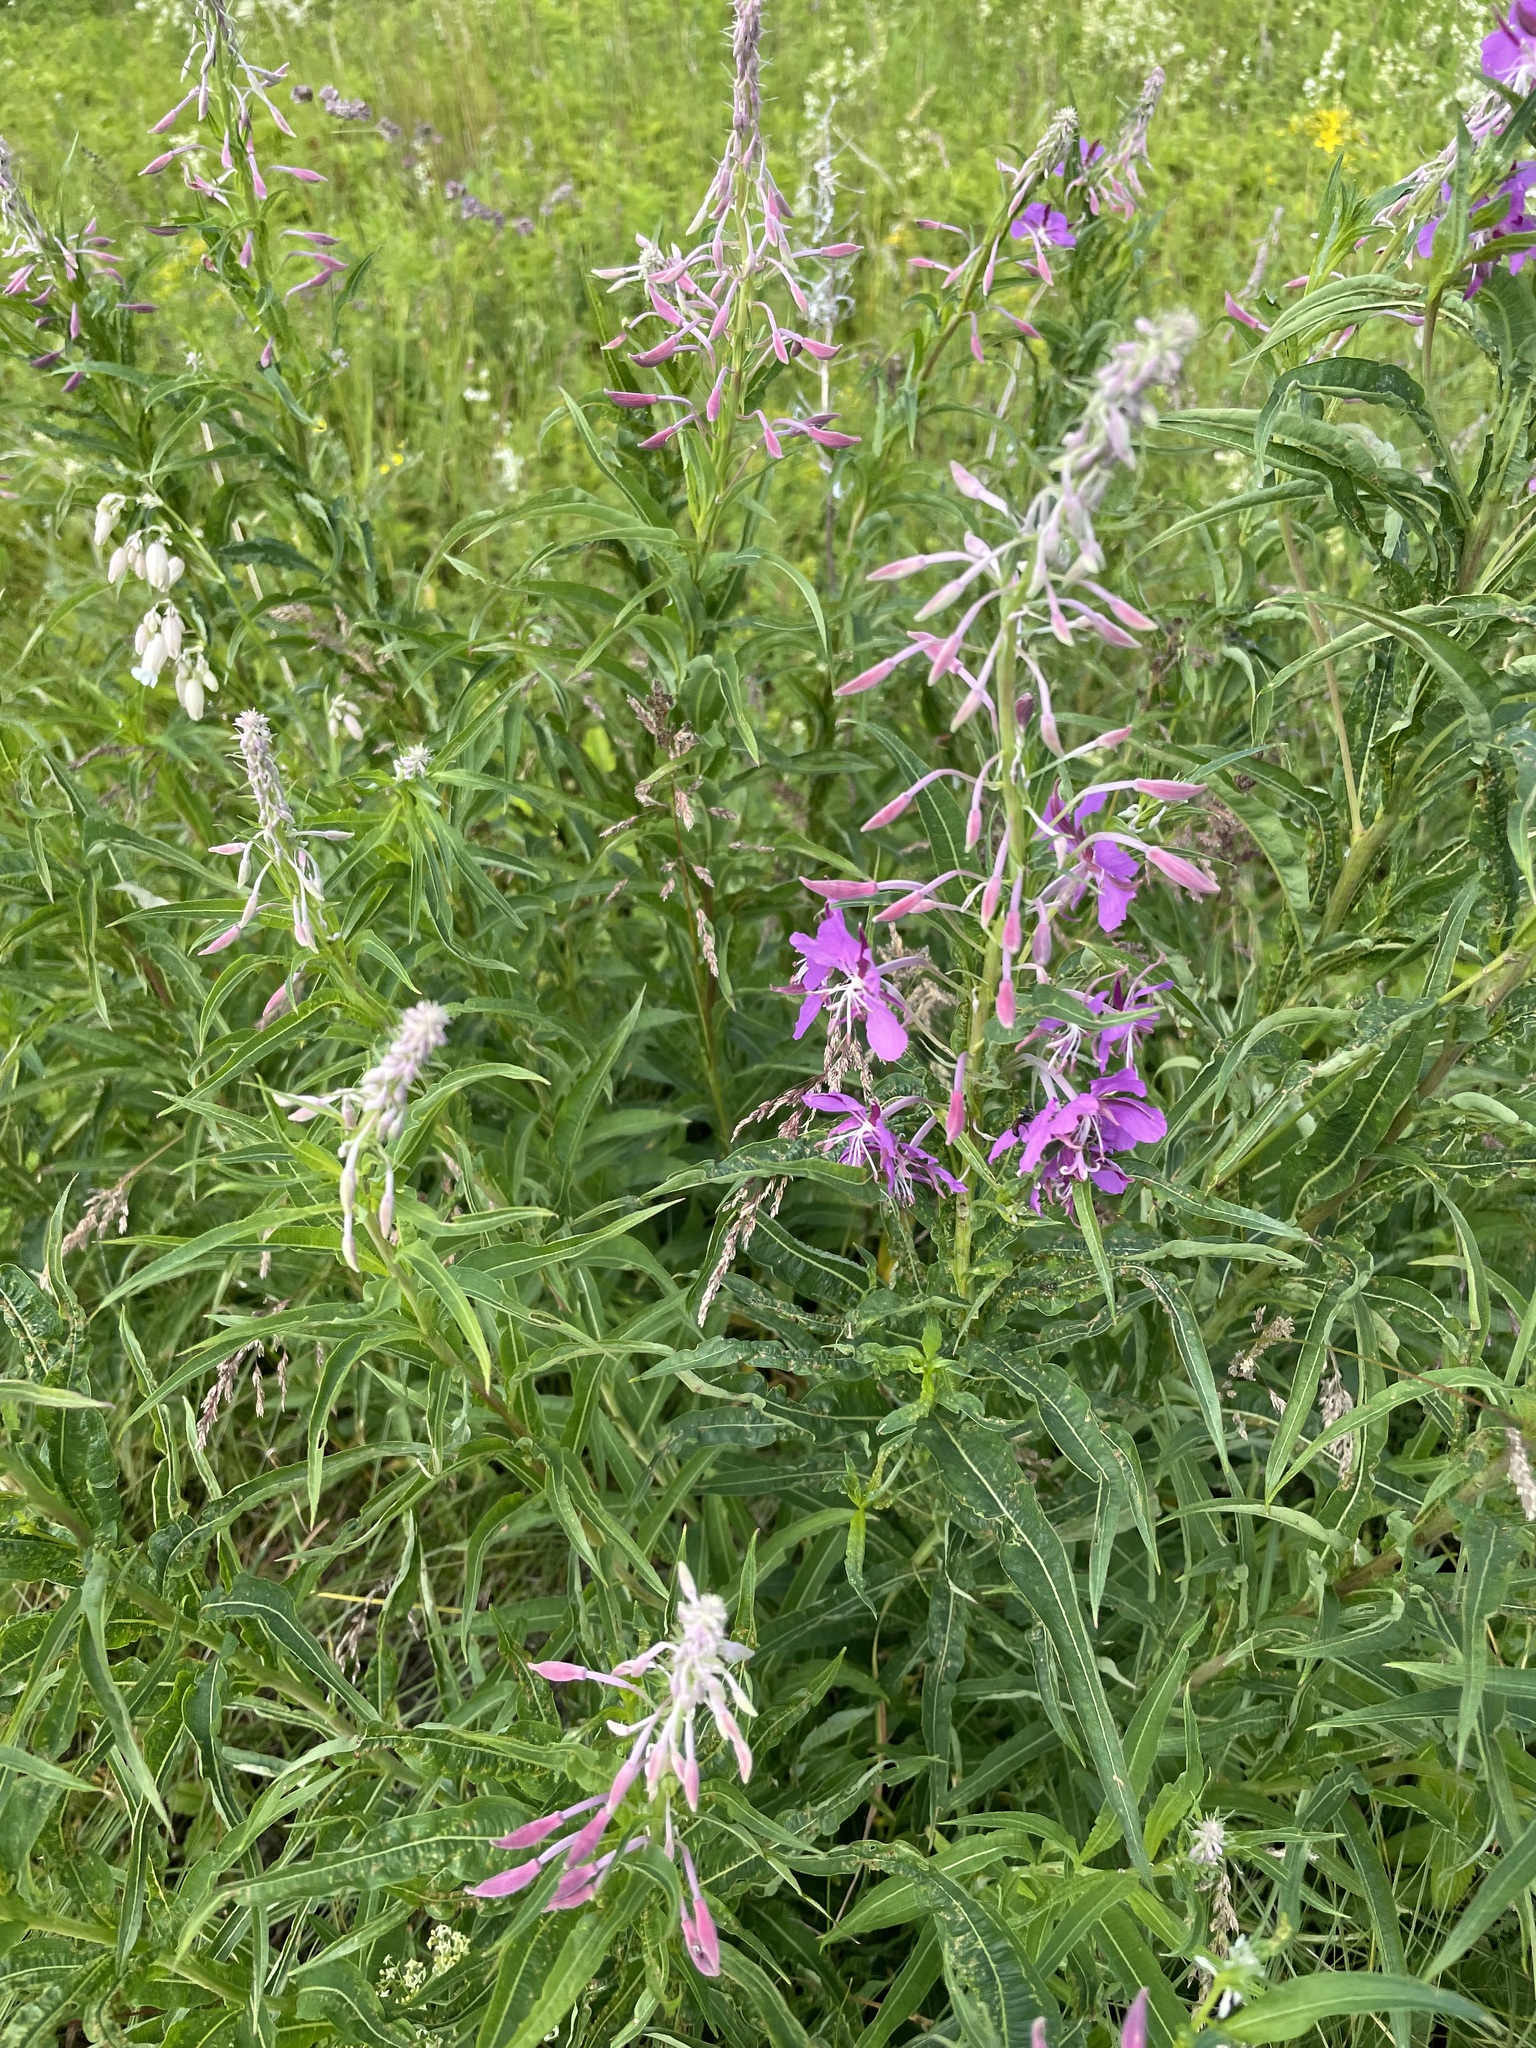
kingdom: Plantae
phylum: Tracheophyta
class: Magnoliopsida
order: Myrtales
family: Onagraceae
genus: Chamaenerion
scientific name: Chamaenerion angustifolium
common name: Fireweed
